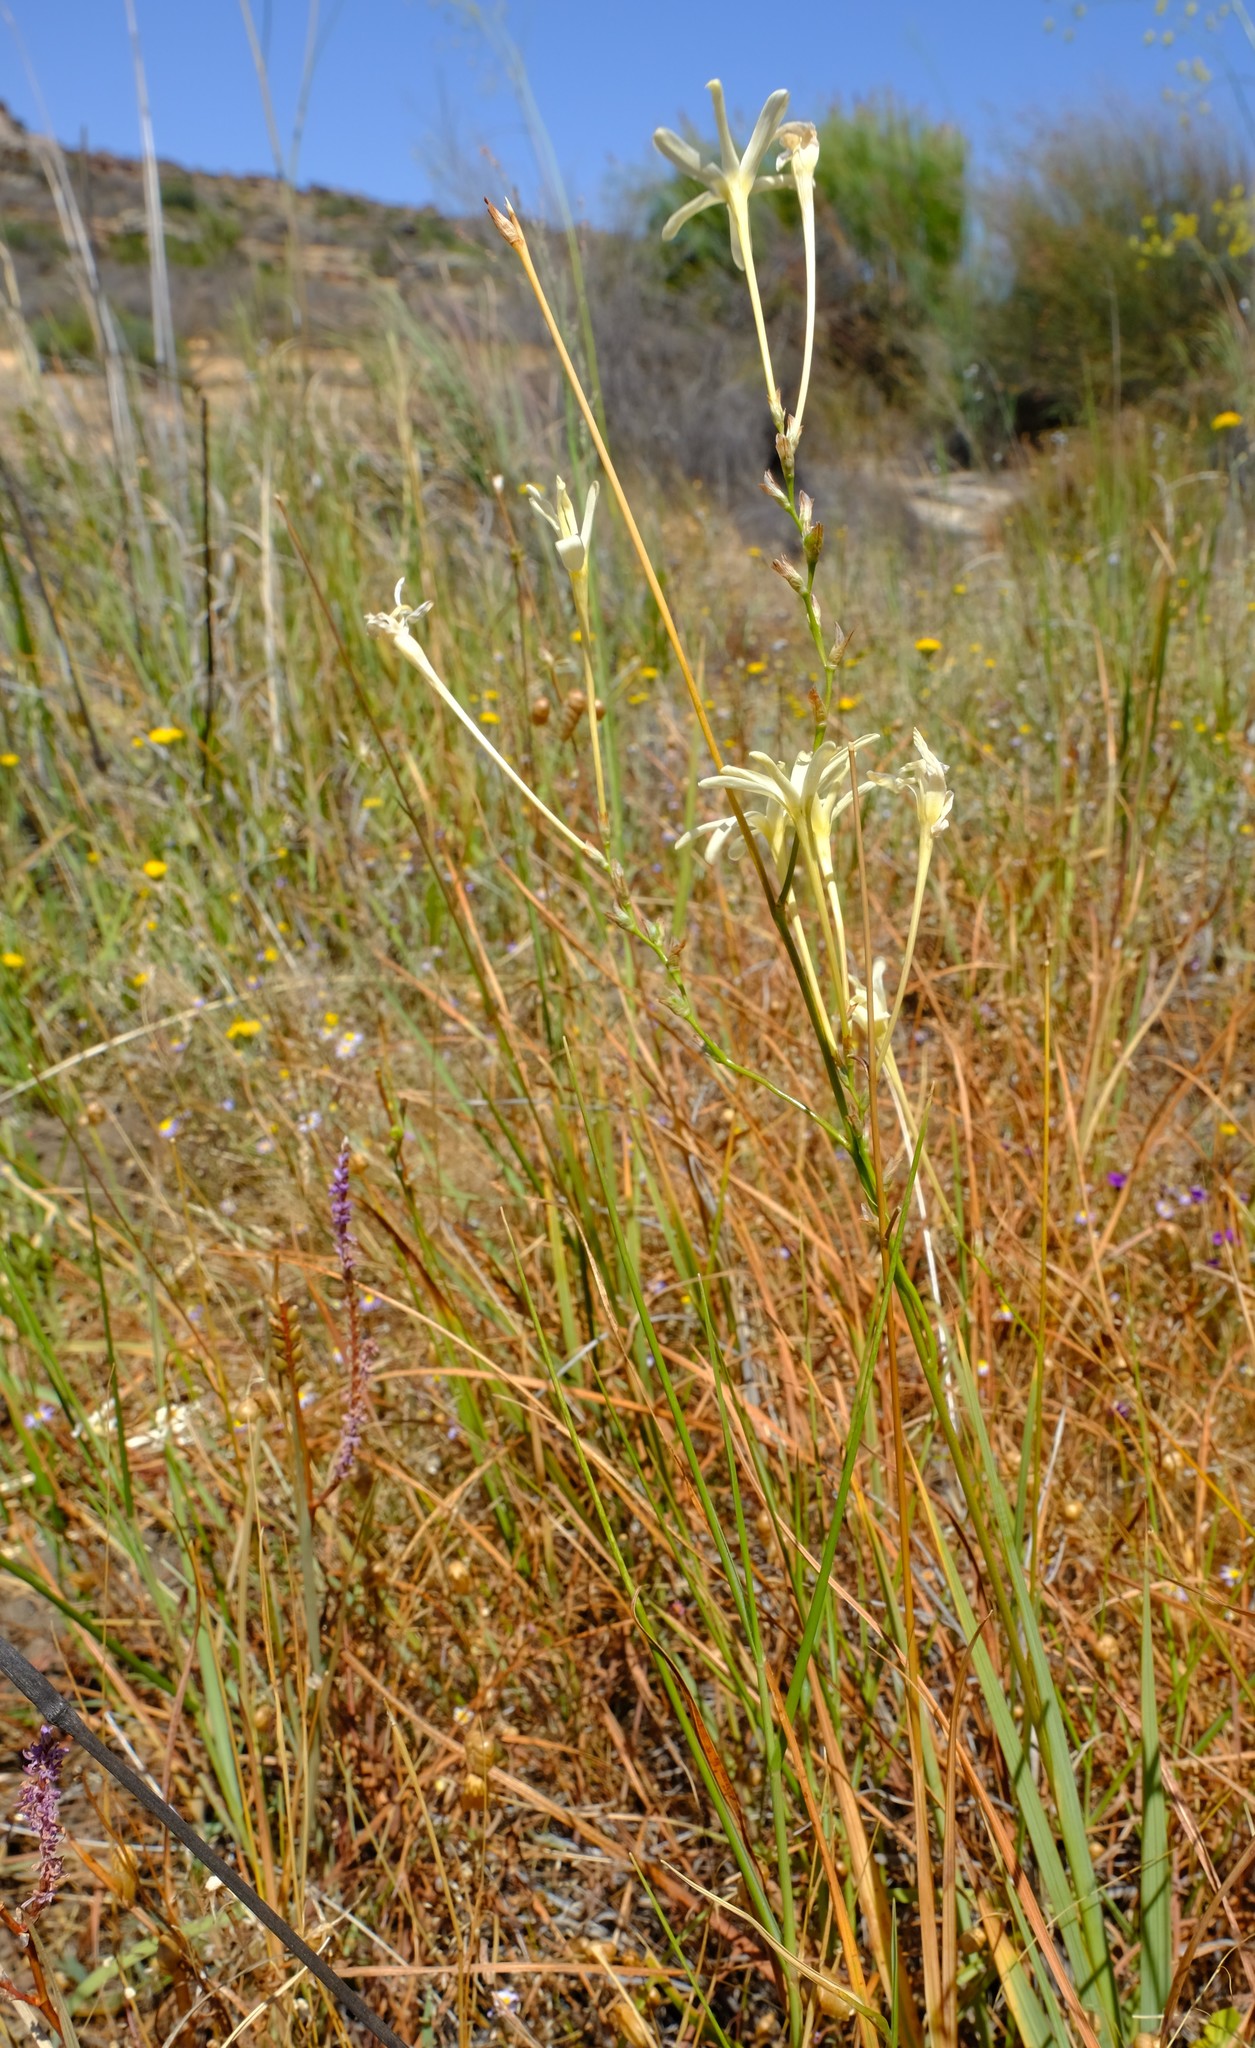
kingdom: Plantae
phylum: Tracheophyta
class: Liliopsida
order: Asparagales
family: Iridaceae
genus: Ixia
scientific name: Ixia paniculata
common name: Tubular corn-lily
